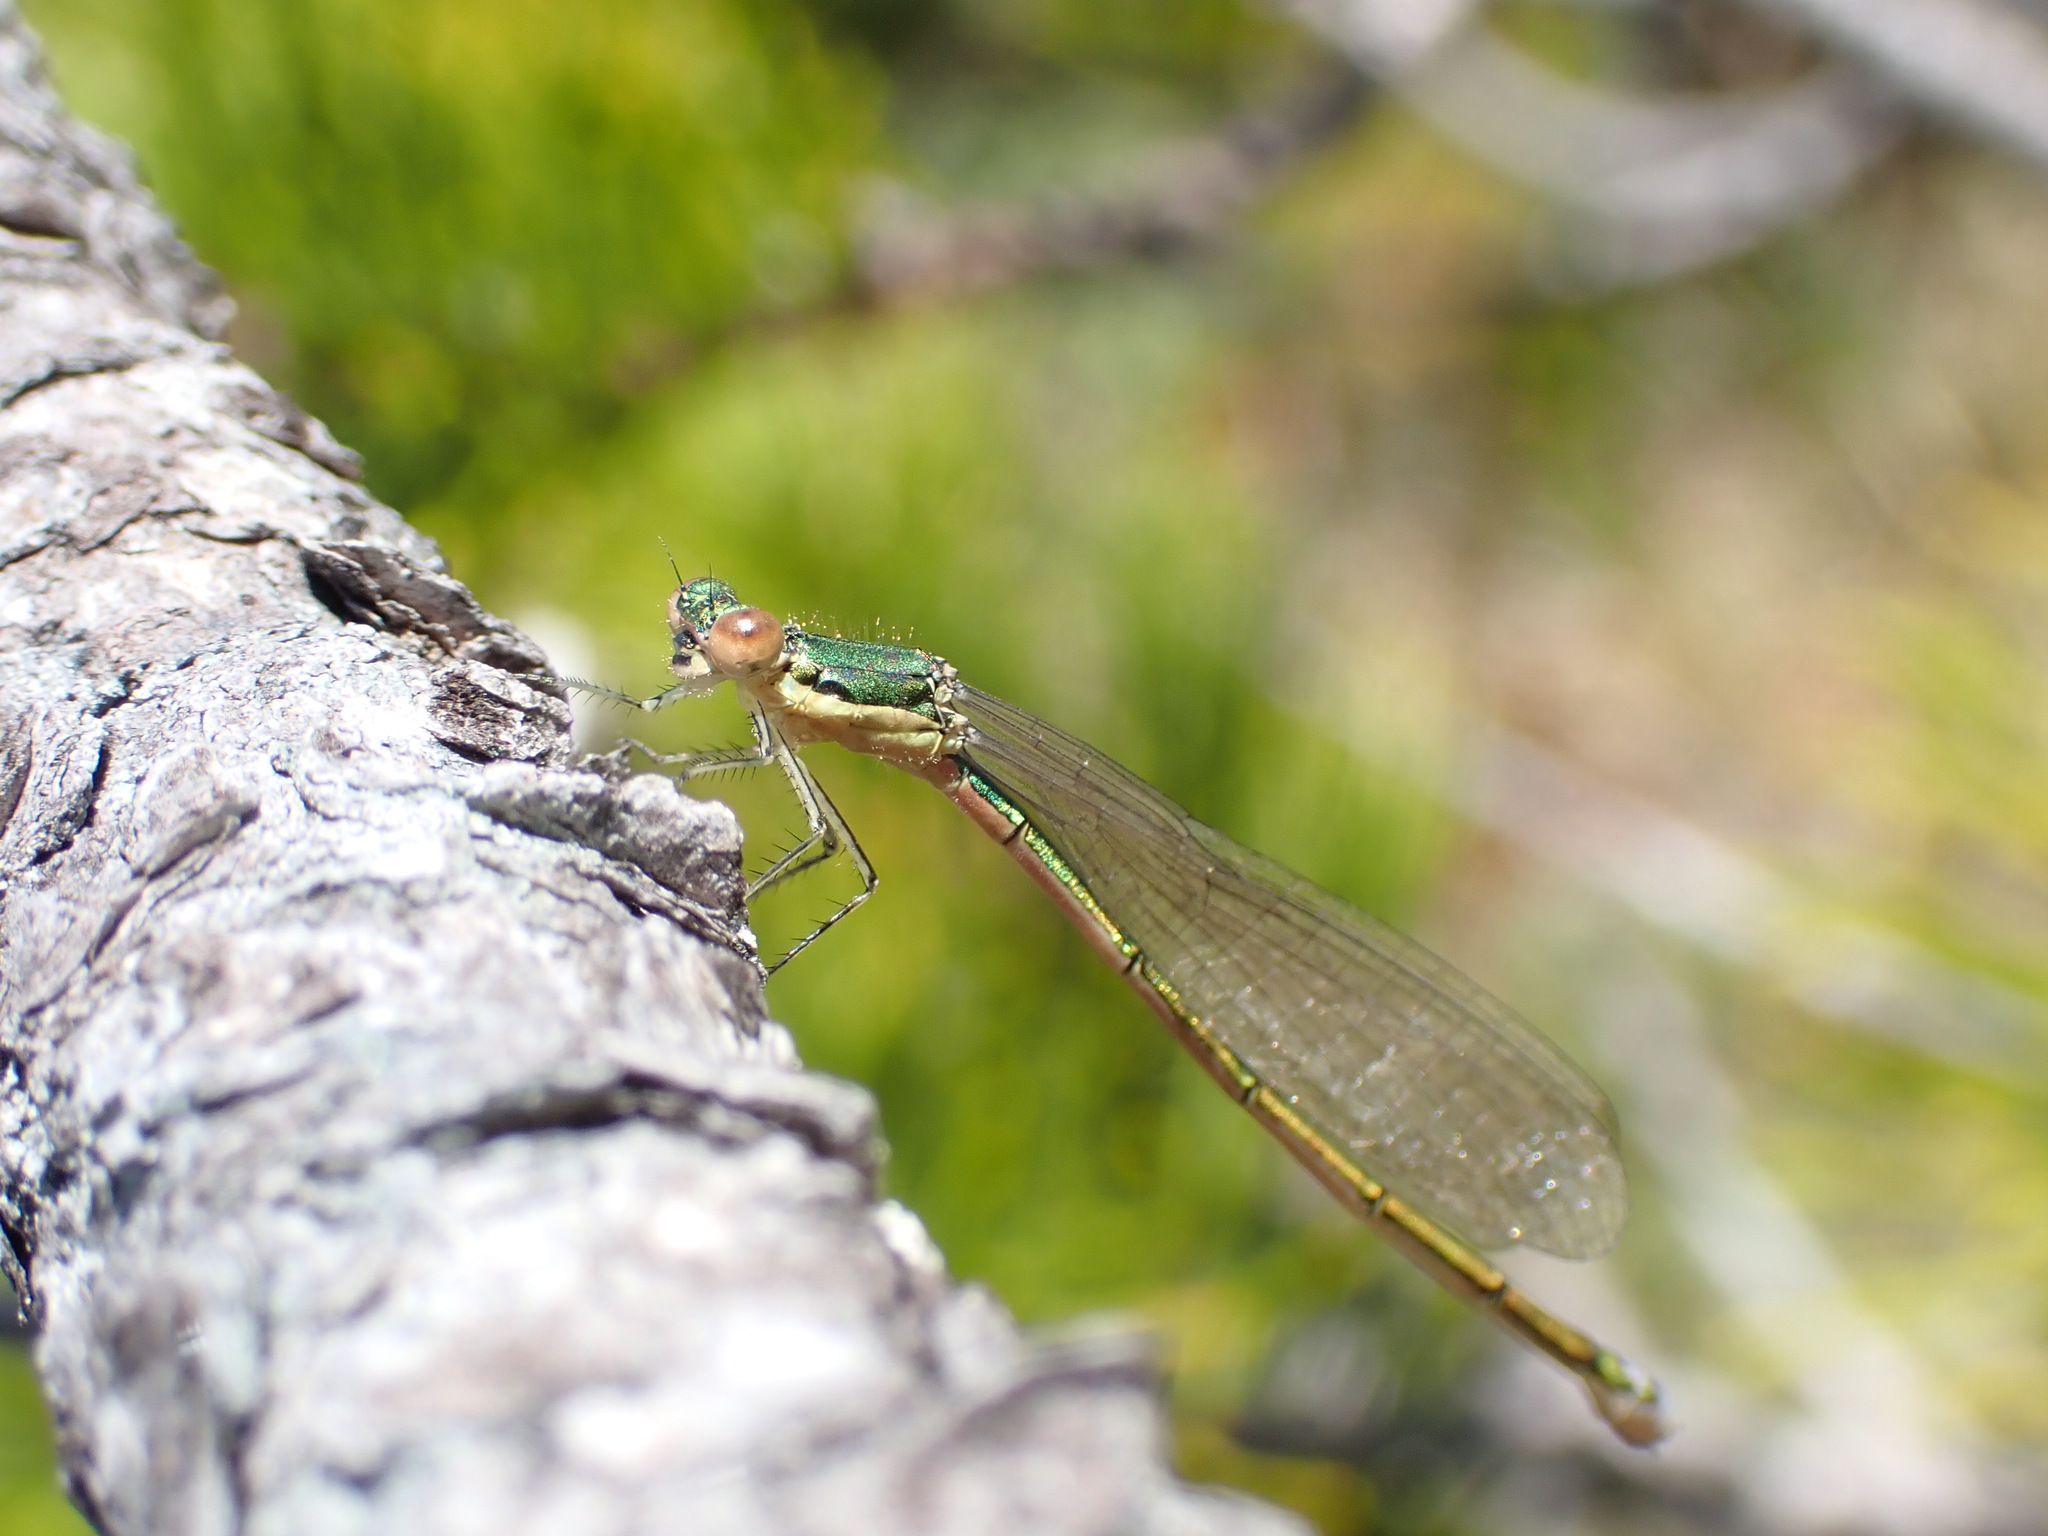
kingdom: Animalia
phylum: Arthropoda
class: Insecta
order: Odonata
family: Coenagrionidae
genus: Nehalennia
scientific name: Nehalennia irene
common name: Sedge sprite
